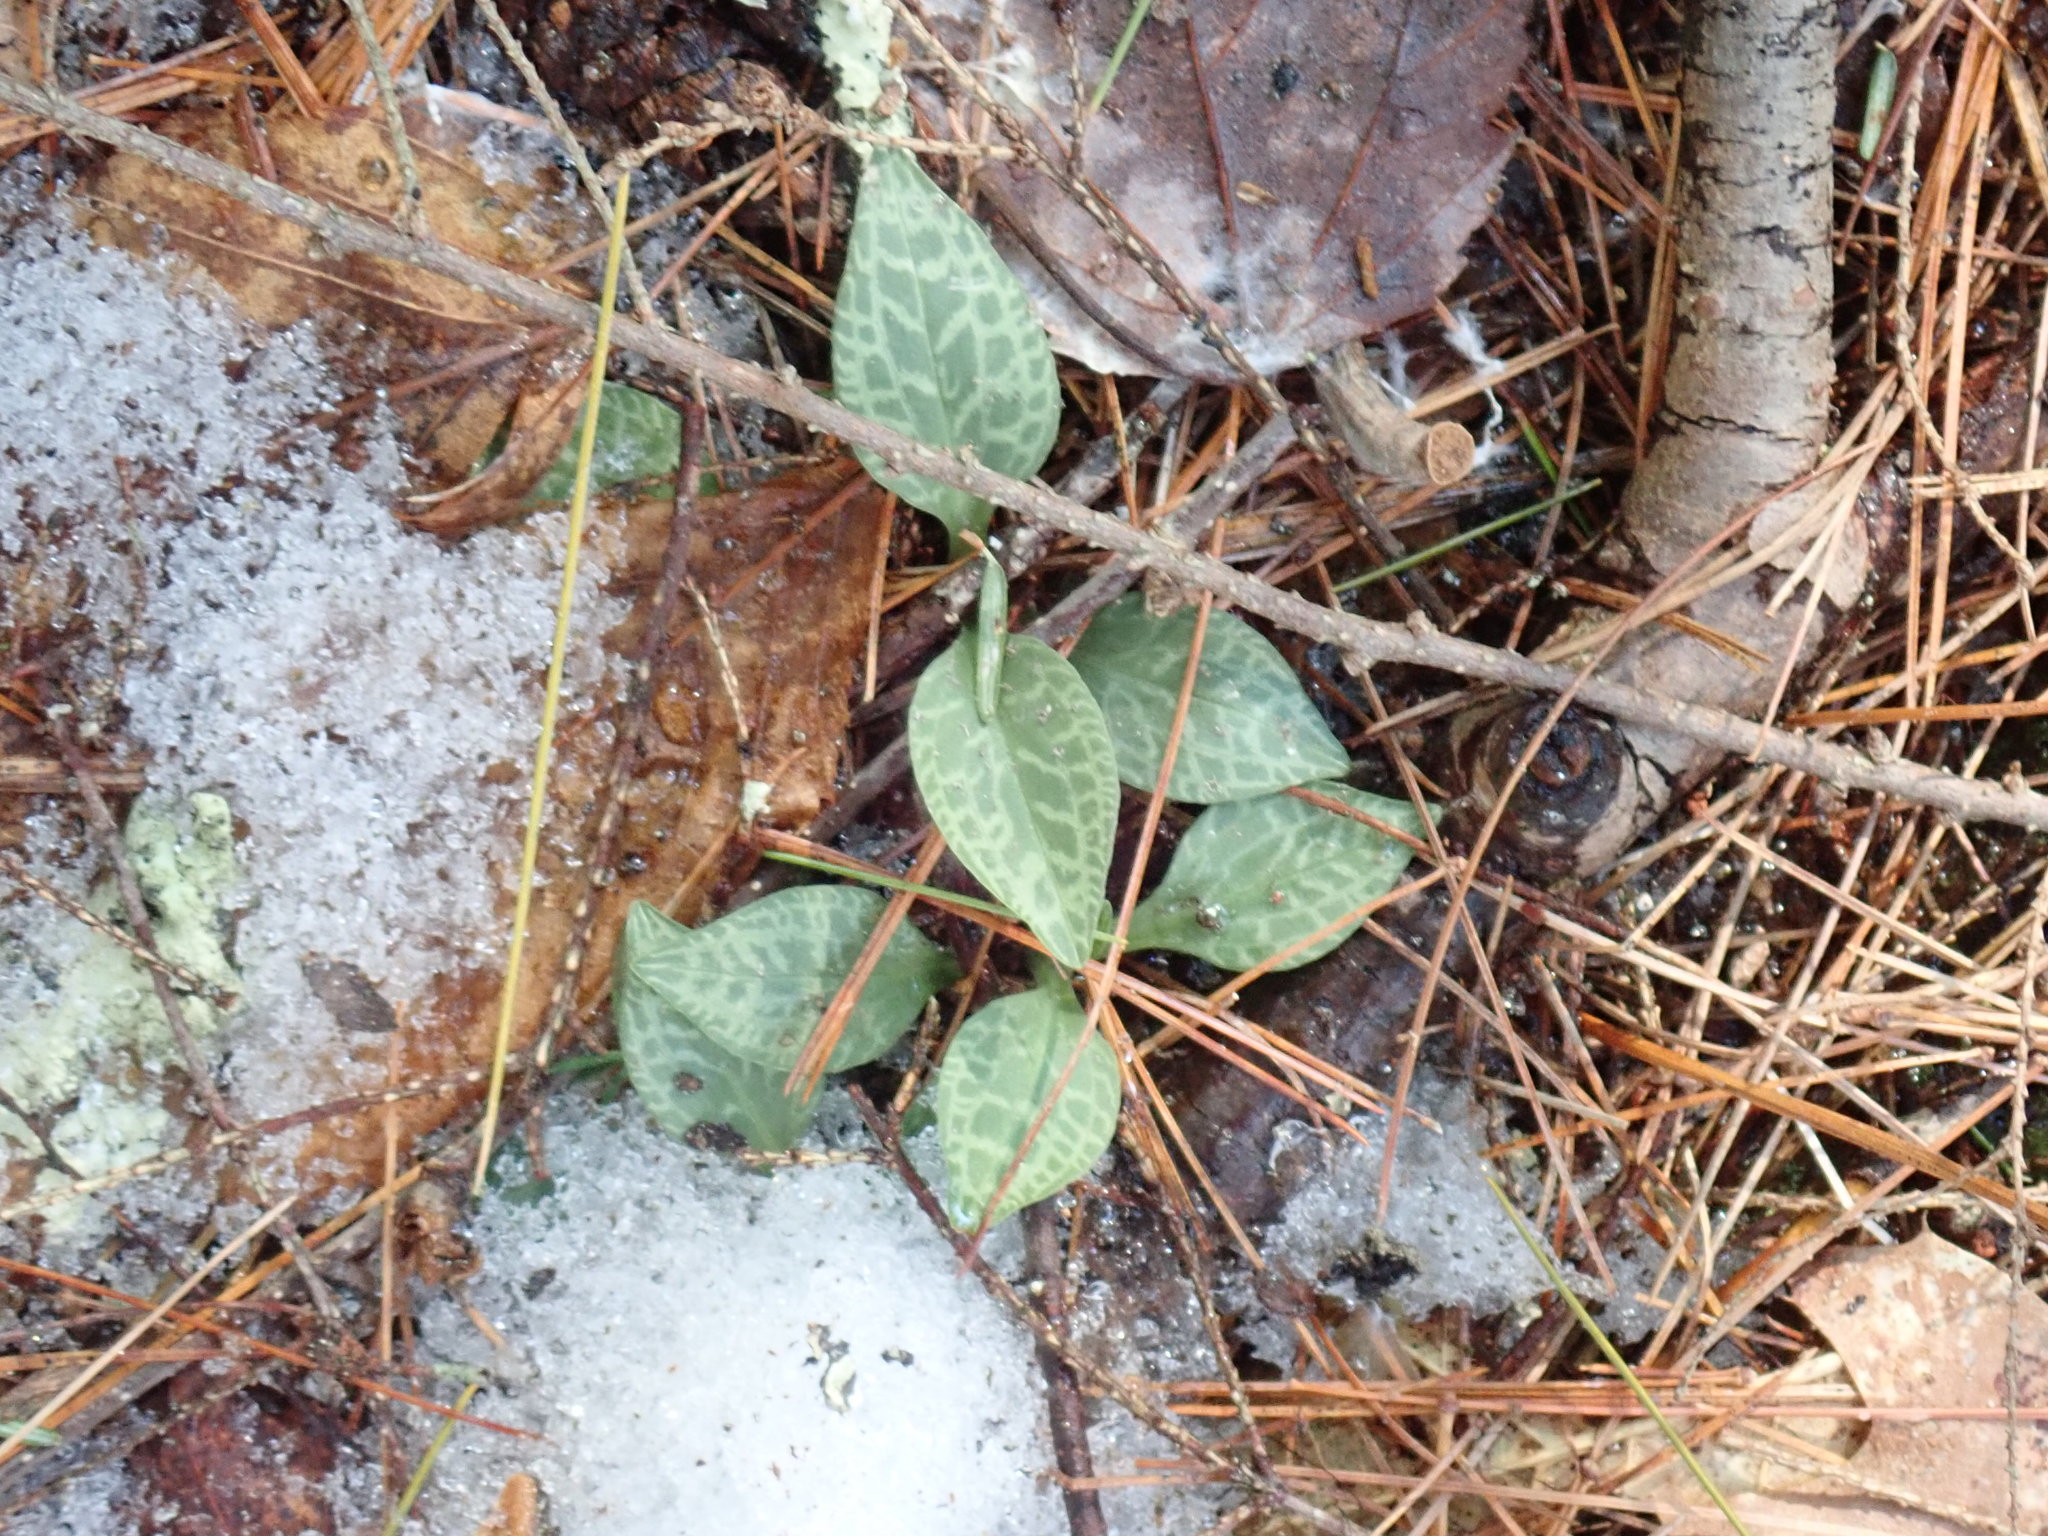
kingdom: Plantae
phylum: Tracheophyta
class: Liliopsida
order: Asparagales
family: Orchidaceae
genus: Goodyera
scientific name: Goodyera tesselata
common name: Checkered rattlesnake-plantain
